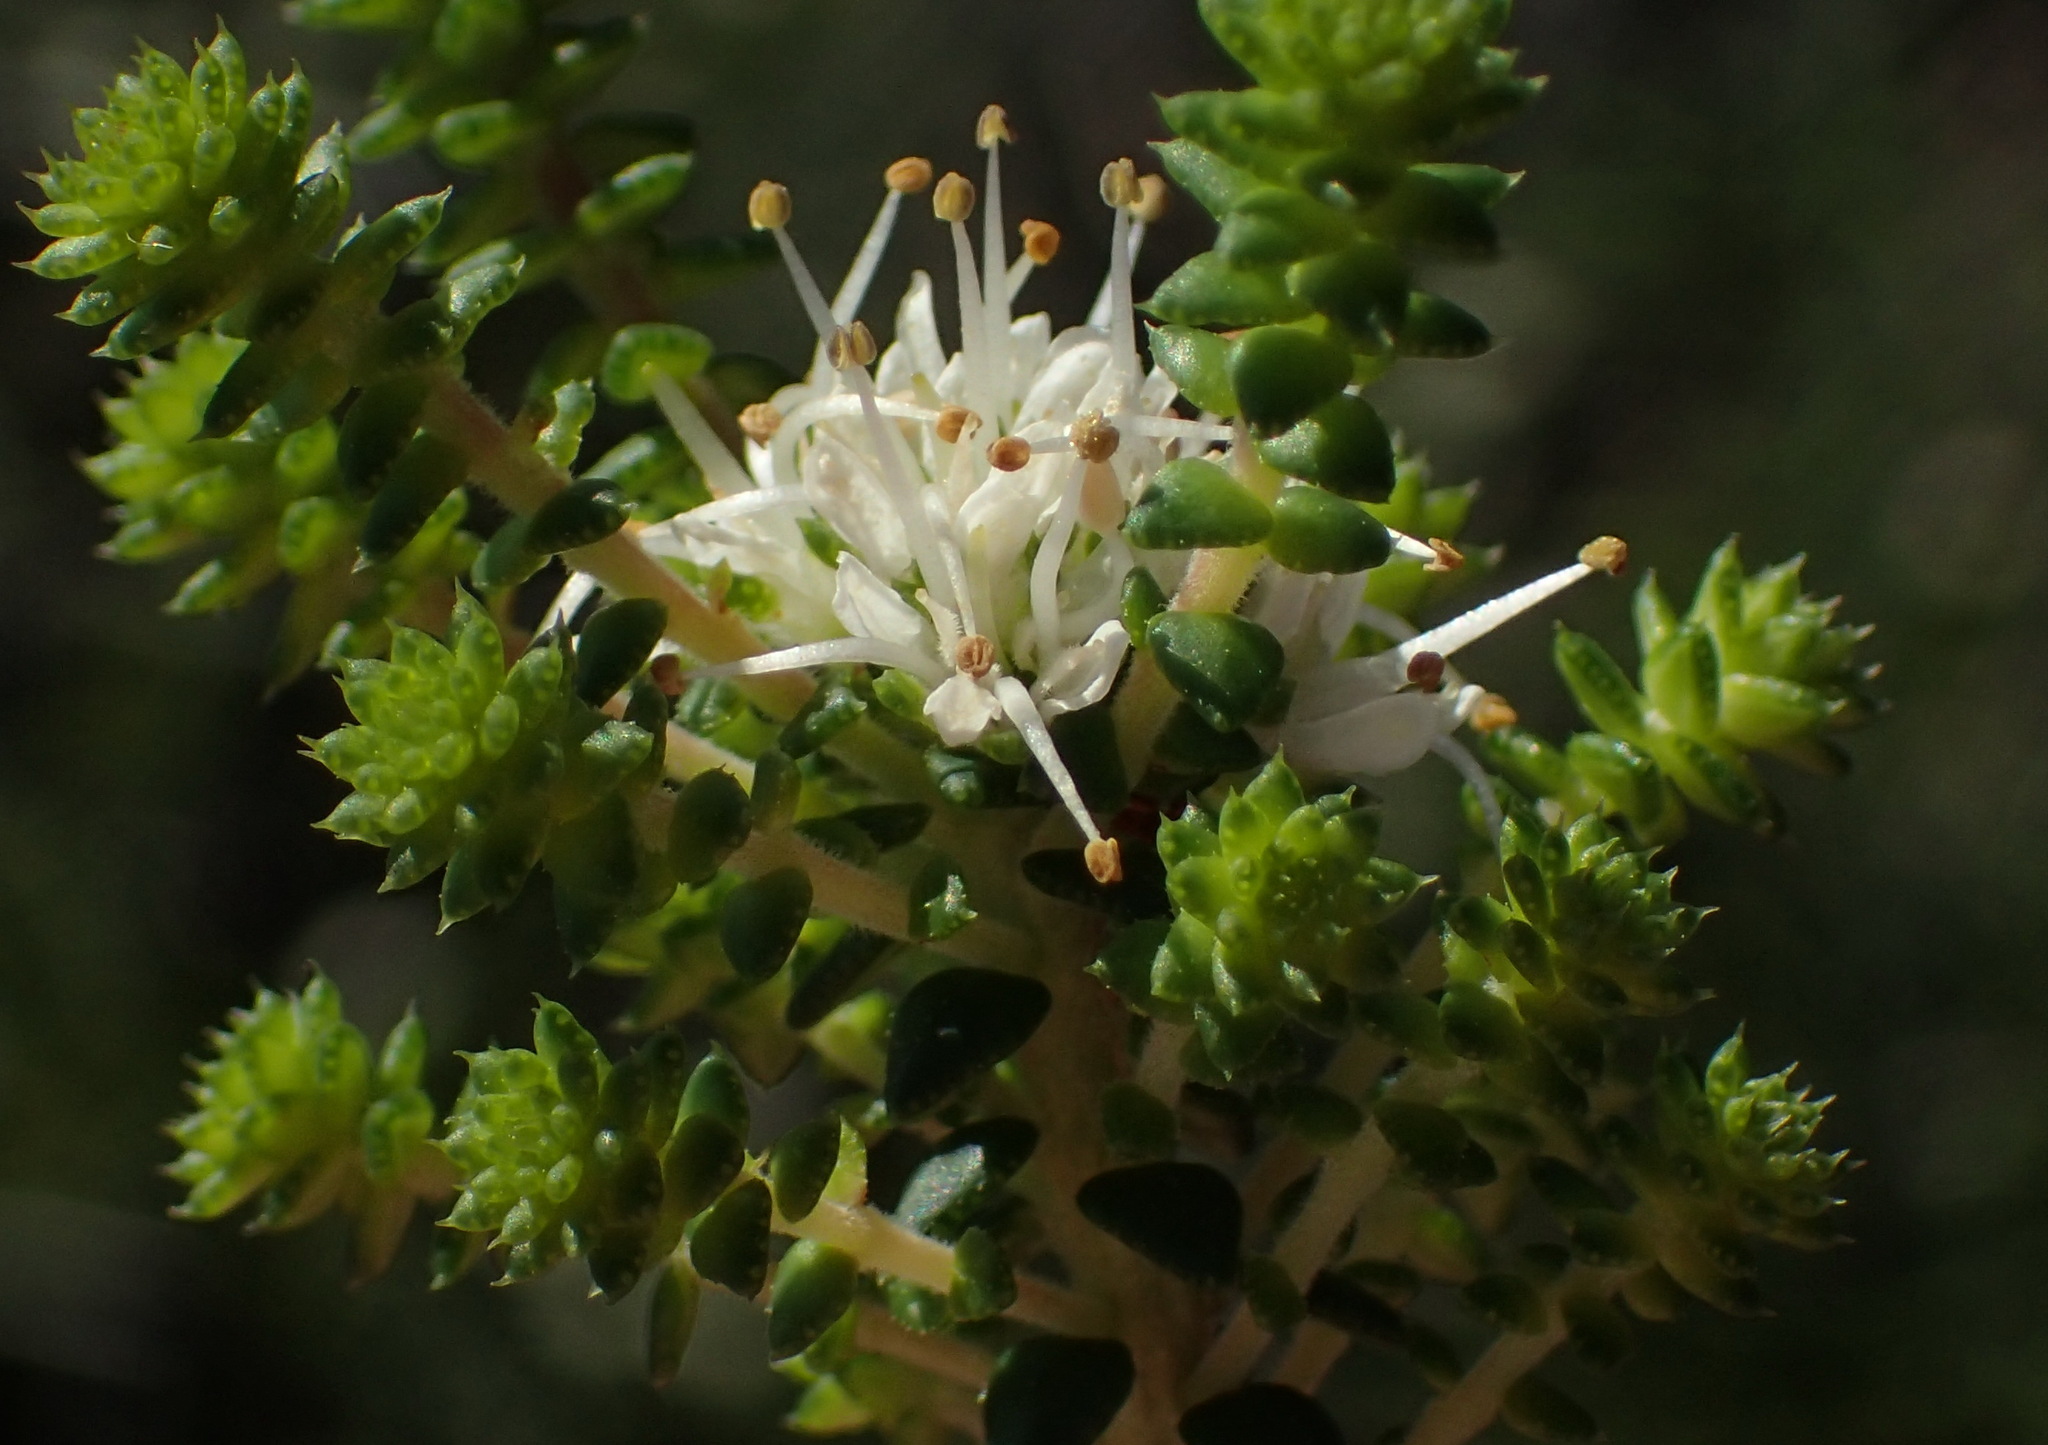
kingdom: Plantae
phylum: Tracheophyta
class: Magnoliopsida
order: Sapindales
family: Rutaceae
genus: Agathosma
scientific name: Agathosma apiculata
